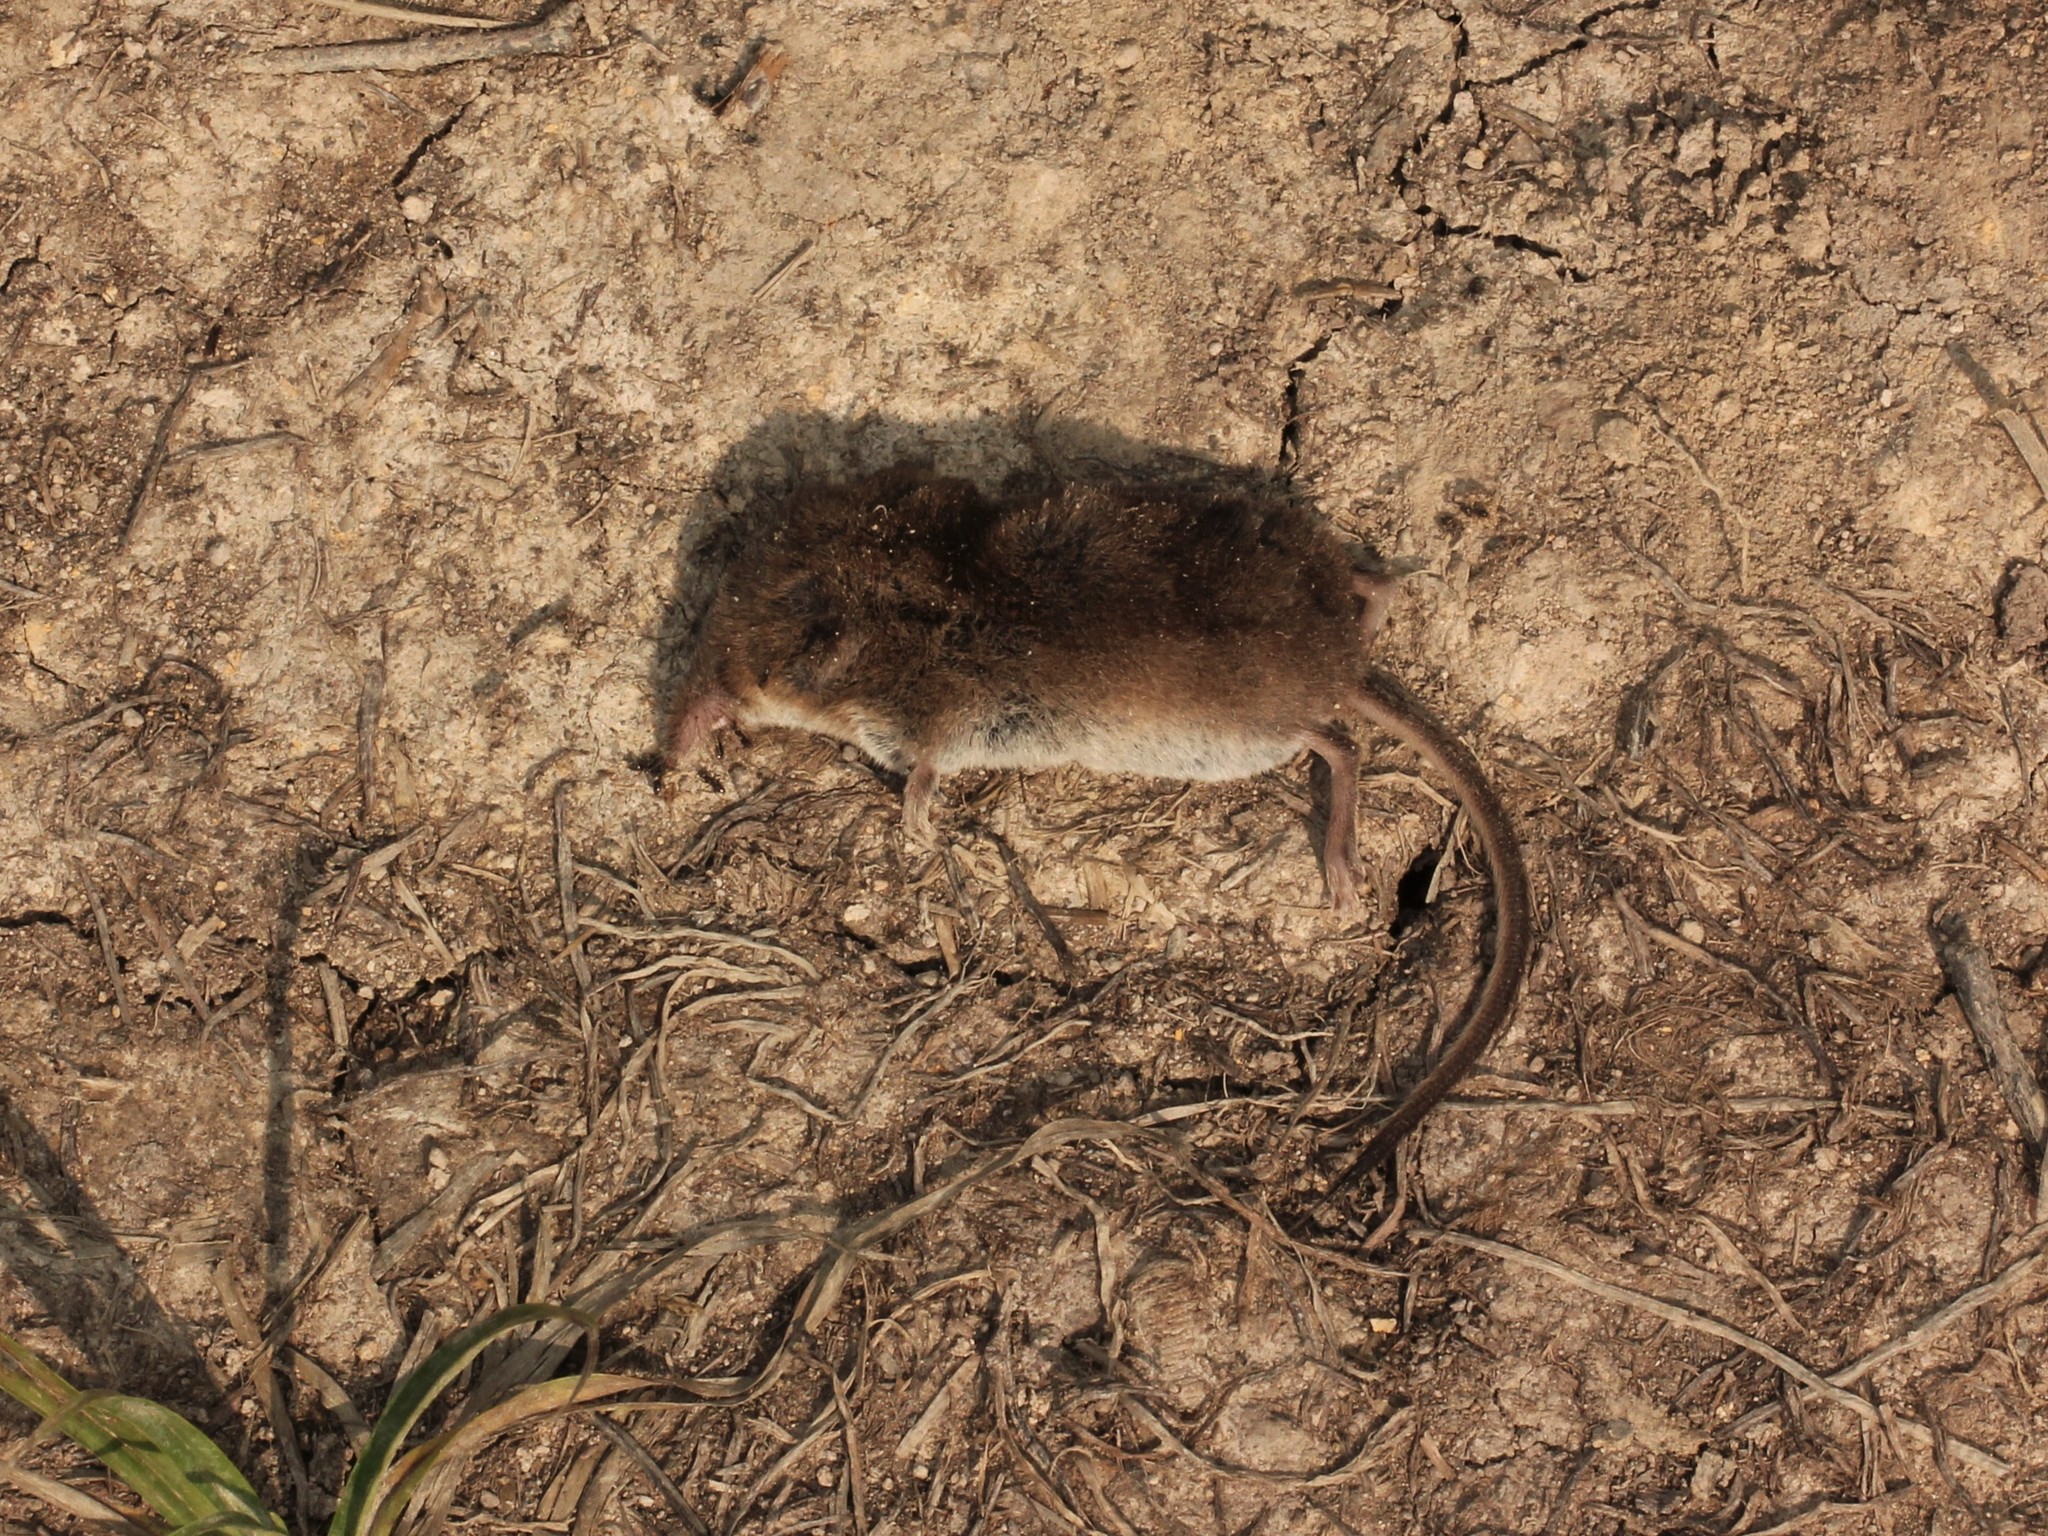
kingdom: Animalia
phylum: Chordata
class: Mammalia
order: Soricomorpha
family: Soricidae
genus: Sorex
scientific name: Sorex cinereus
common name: Cinereus shrew
